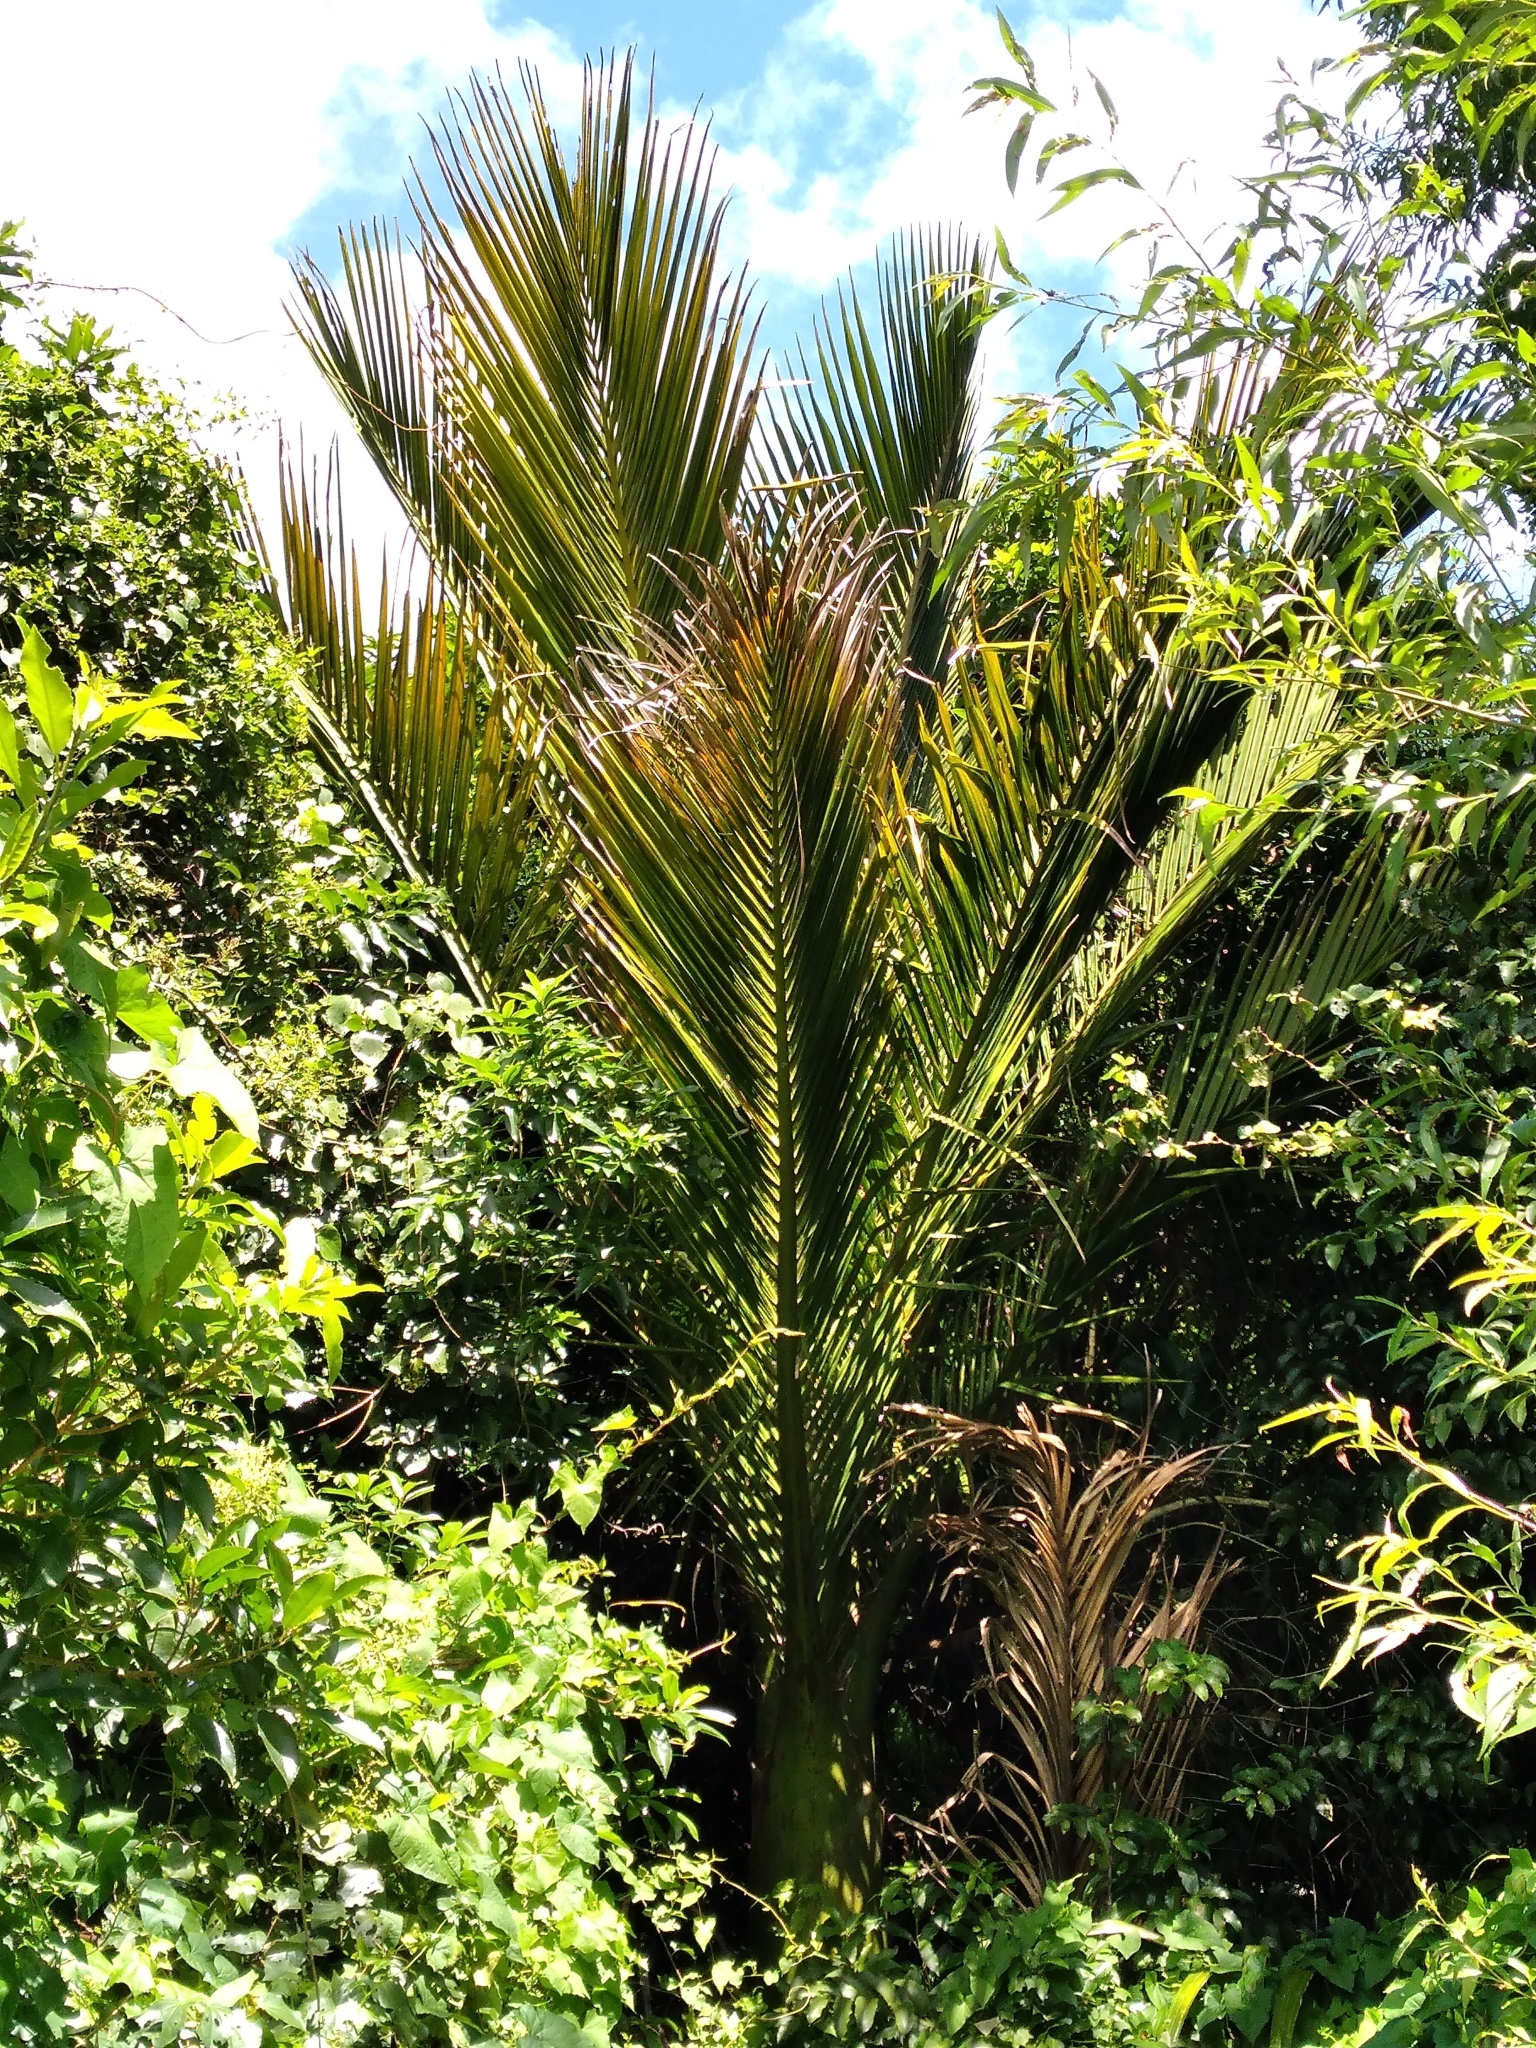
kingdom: Plantae
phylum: Tracheophyta
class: Liliopsida
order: Arecales
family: Arecaceae
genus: Rhopalostylis
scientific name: Rhopalostylis sapida
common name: Feather-duster palm
